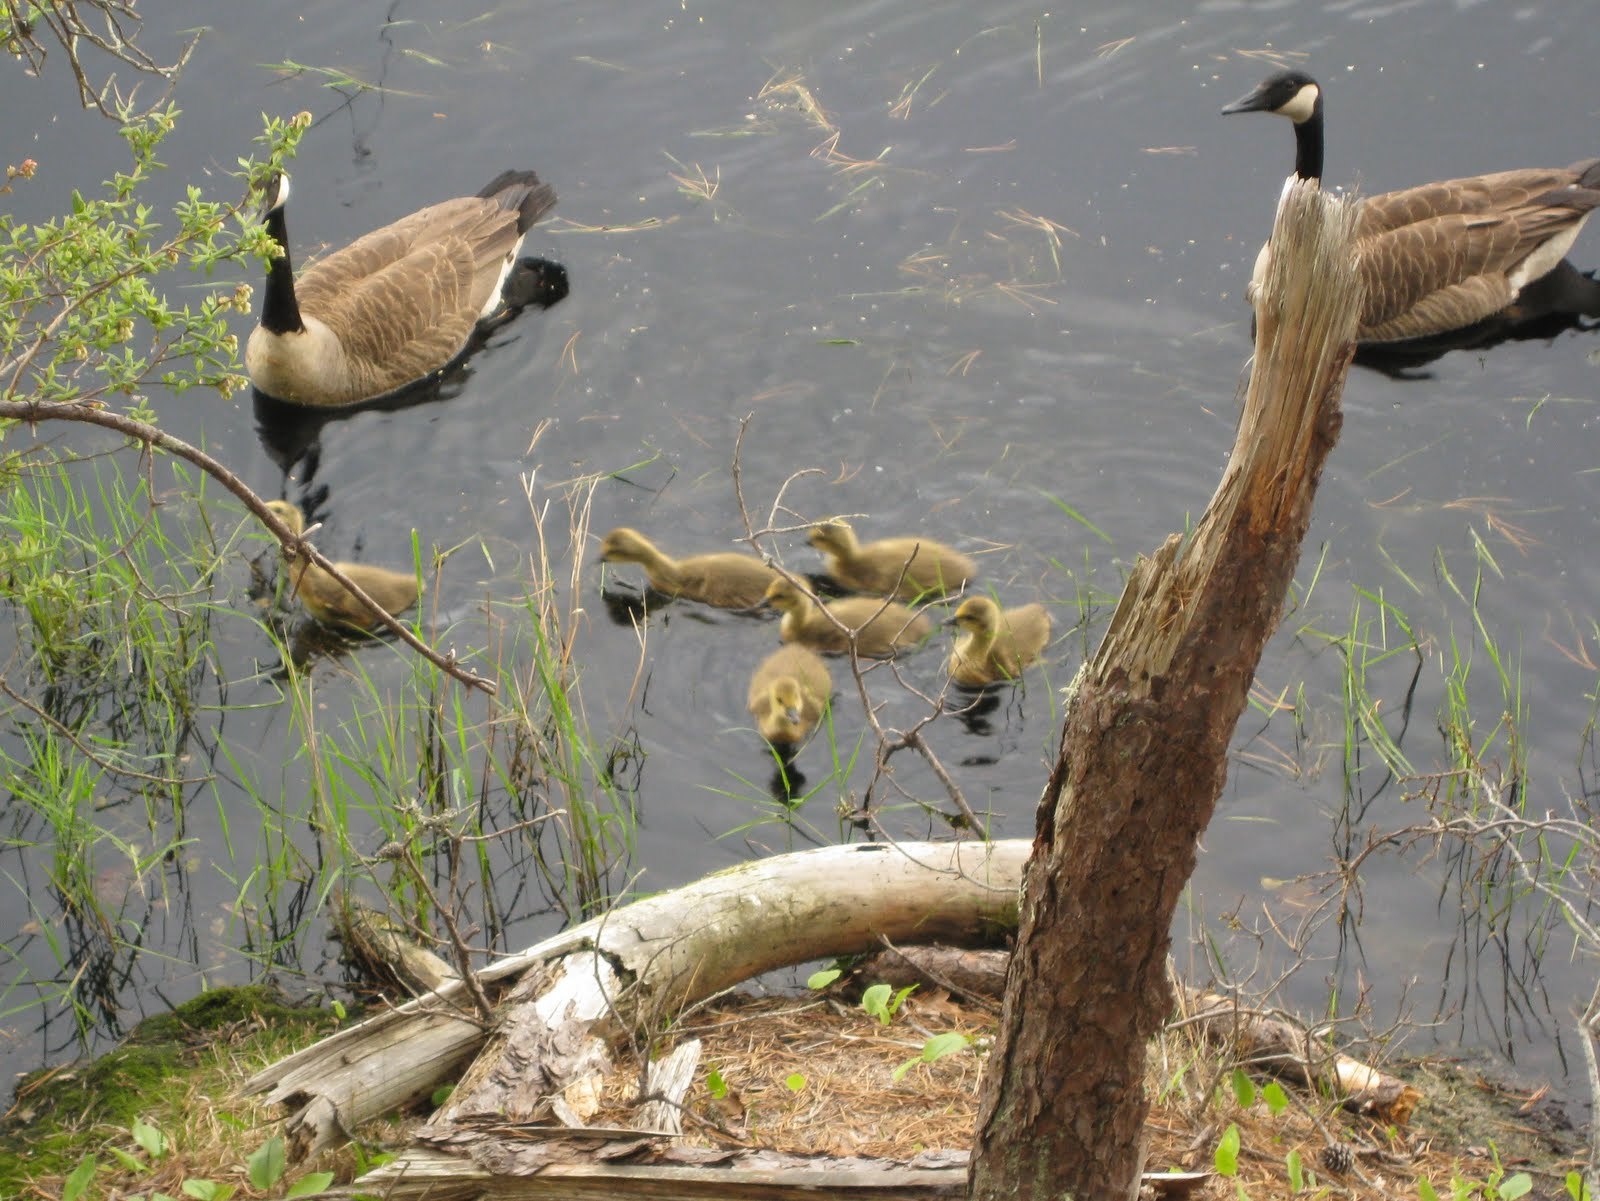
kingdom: Animalia
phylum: Chordata
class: Aves
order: Anseriformes
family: Anatidae
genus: Branta
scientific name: Branta canadensis
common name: Canada goose
